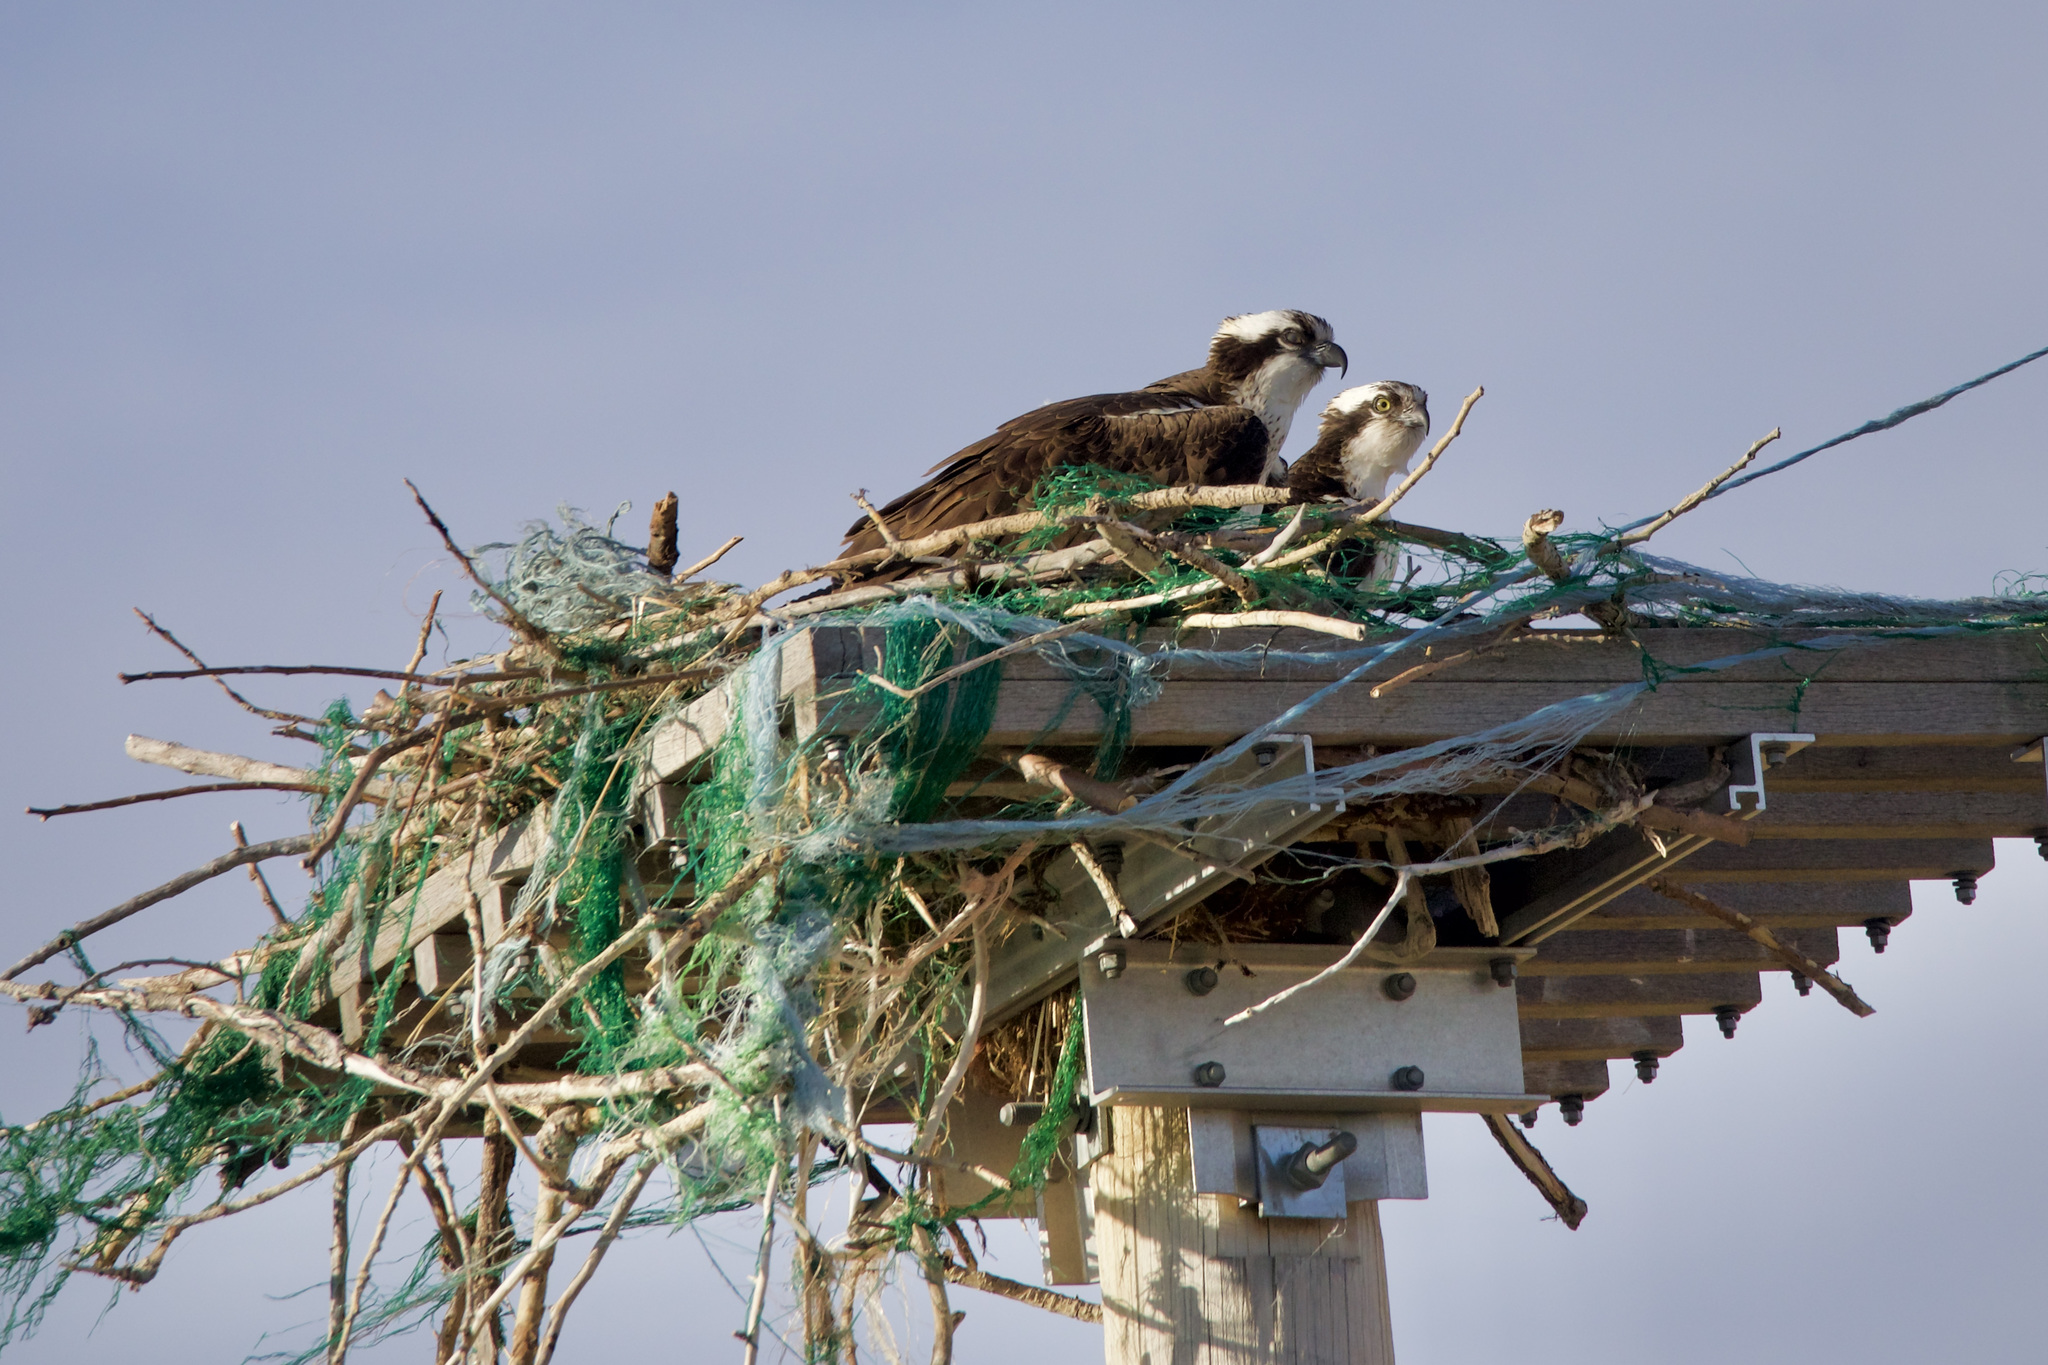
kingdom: Animalia
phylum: Chordata
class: Aves
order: Accipitriformes
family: Pandionidae
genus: Pandion
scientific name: Pandion haliaetus
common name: Osprey
